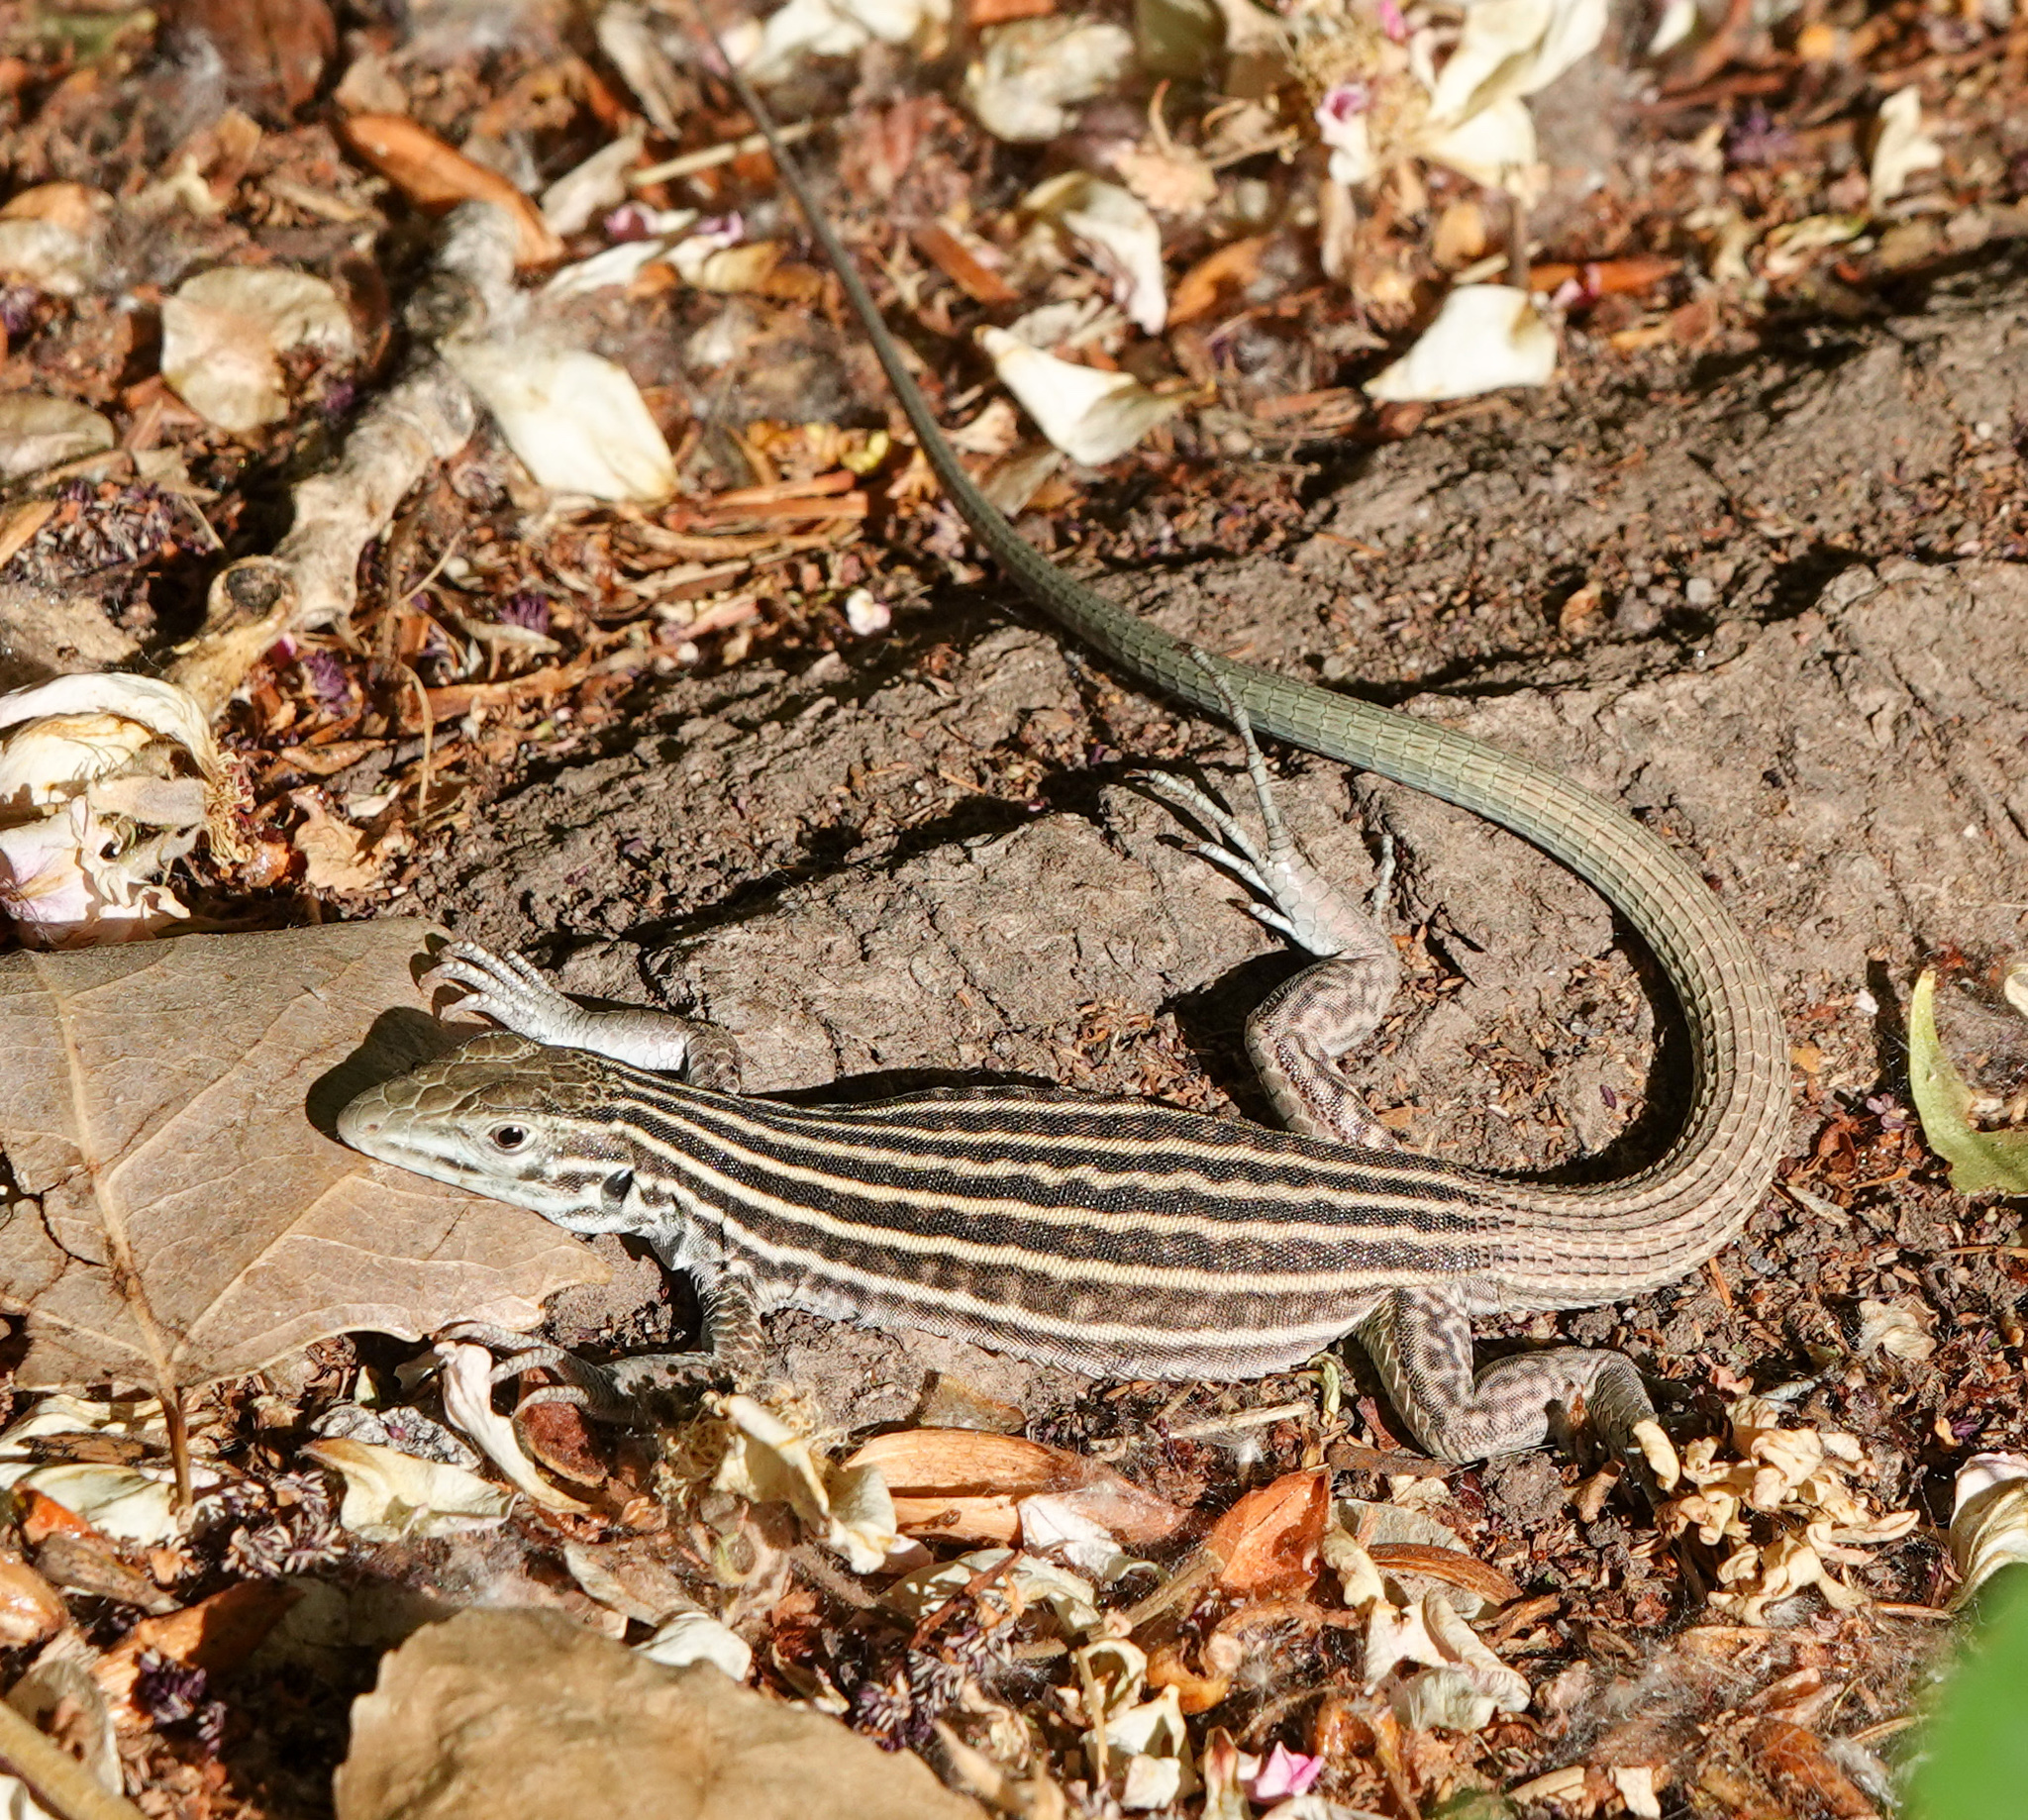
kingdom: Animalia
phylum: Chordata
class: Squamata
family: Teiidae
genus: Aspidoscelis
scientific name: Aspidoscelis neomexicanus
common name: New mexico whiptail
